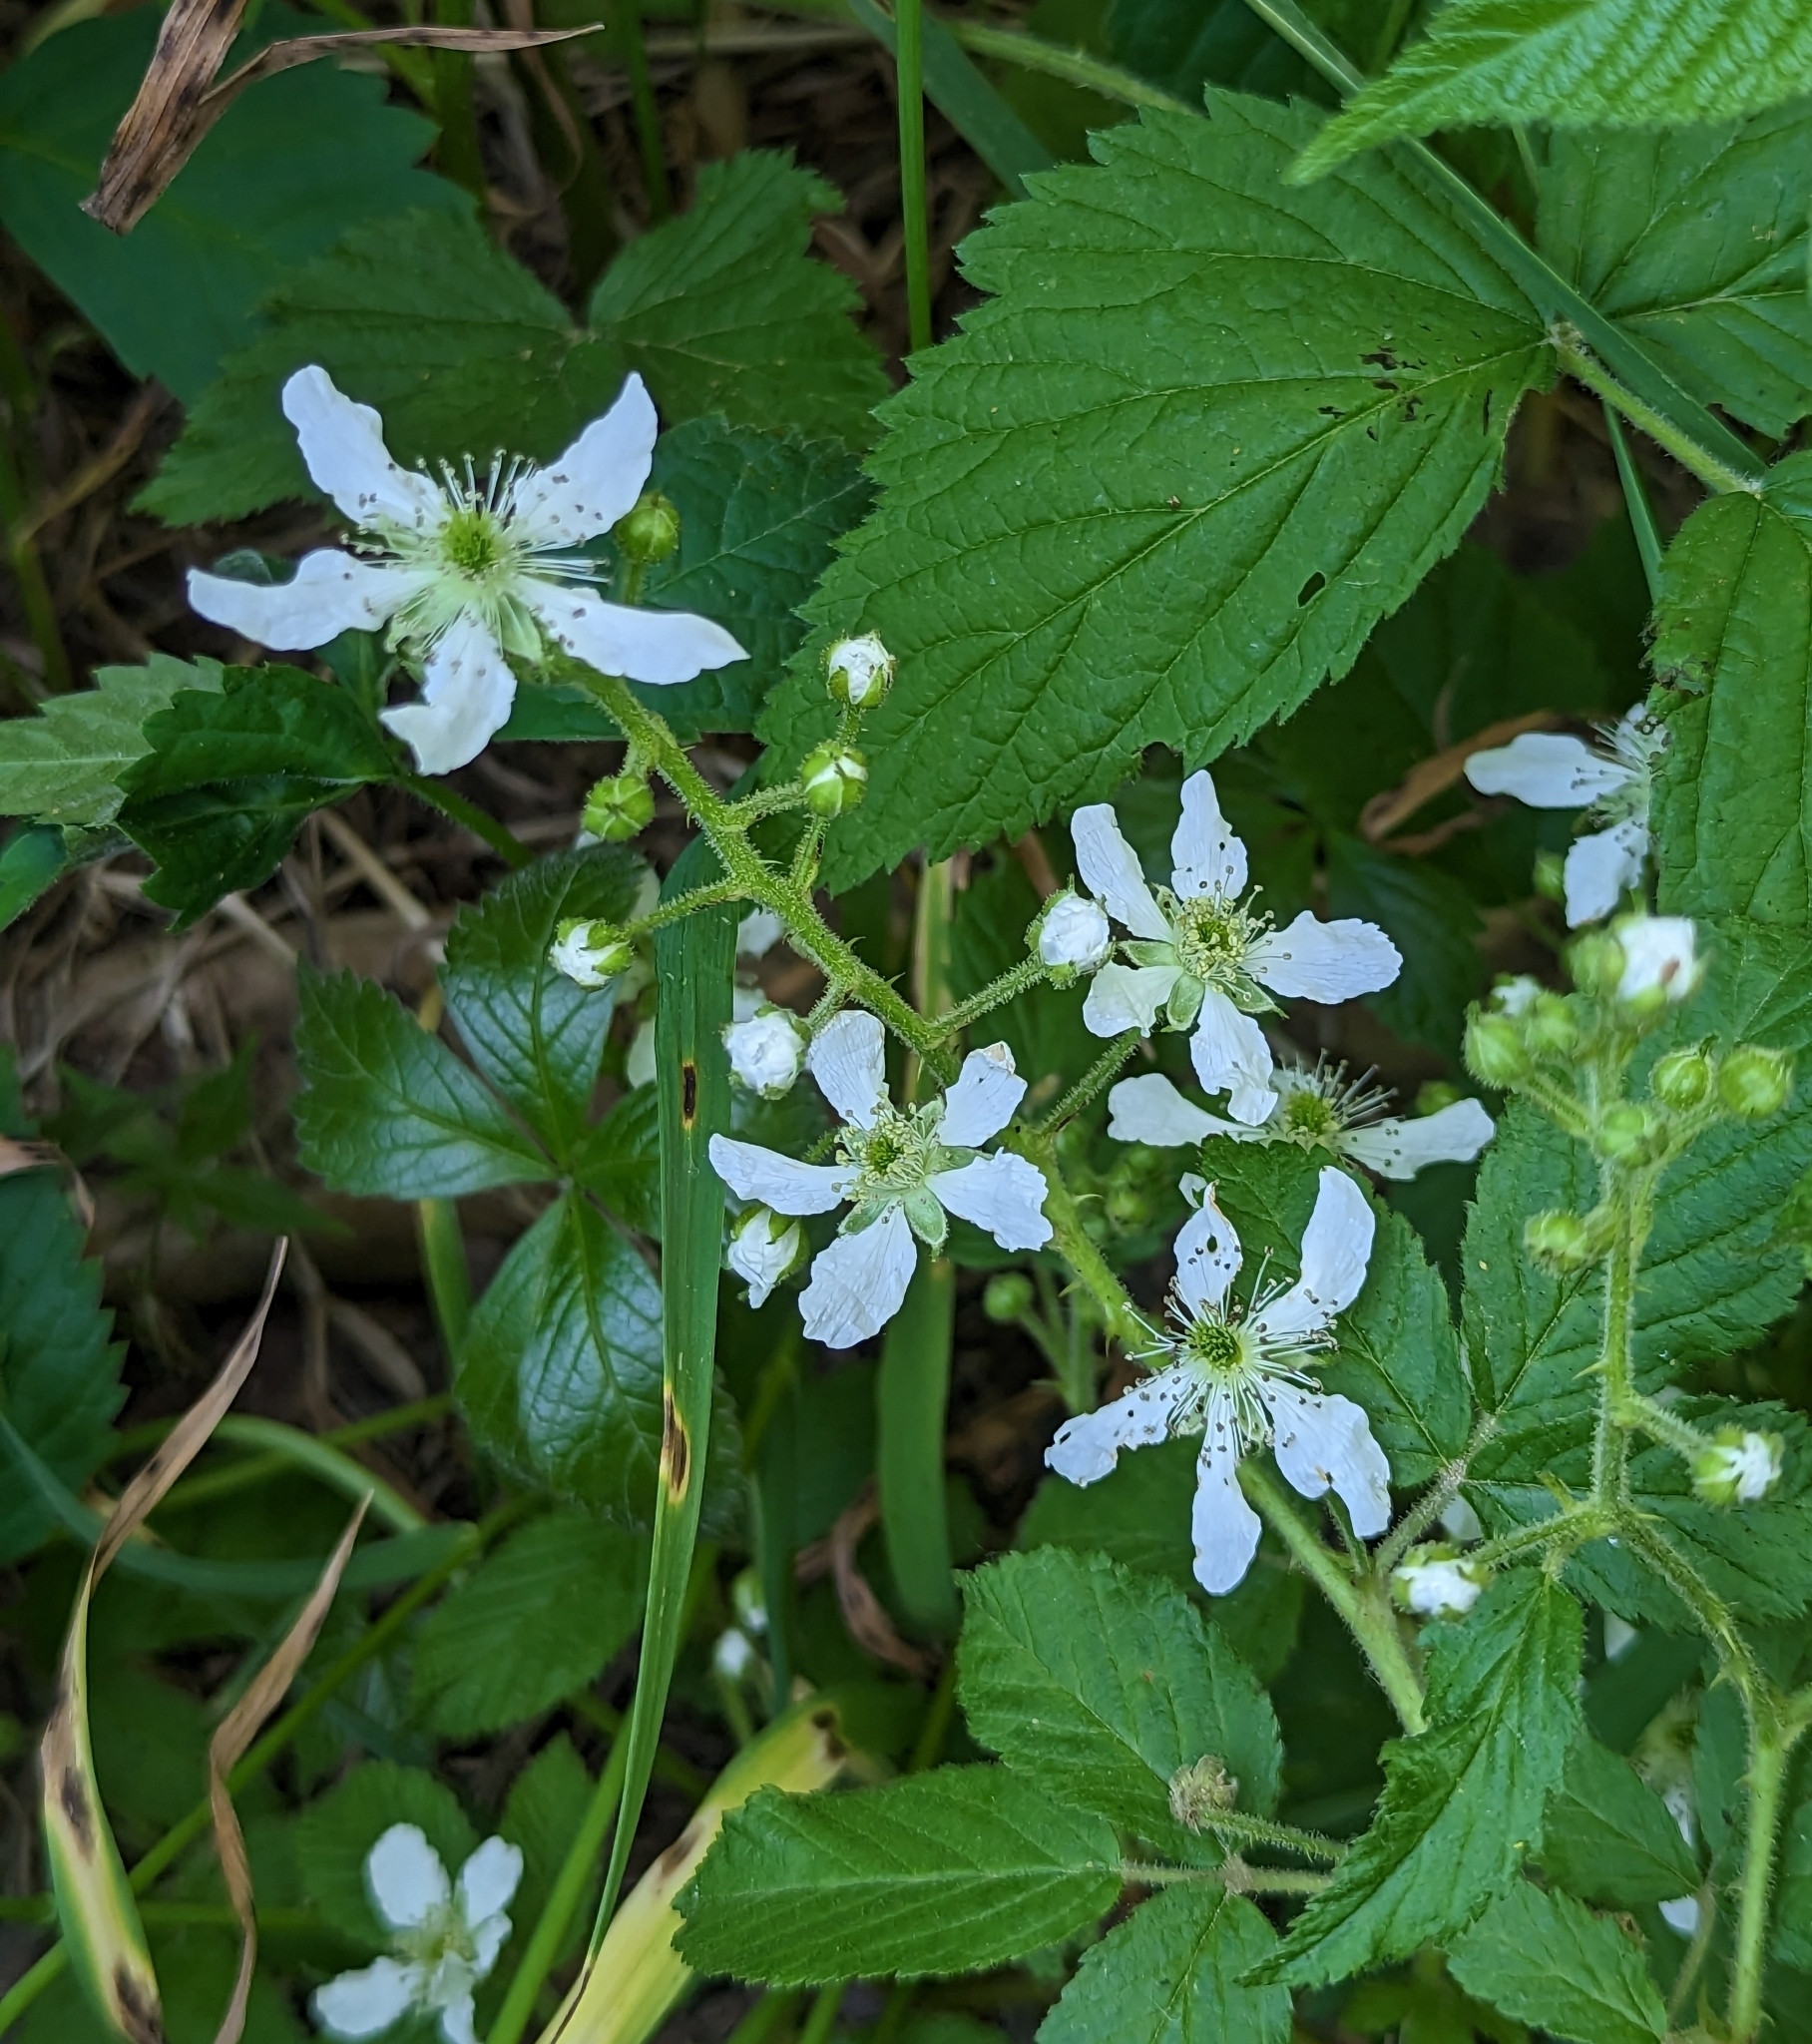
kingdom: Plantae
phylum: Tracheophyta
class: Magnoliopsida
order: Rosales
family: Rosaceae
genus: Rubus
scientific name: Rubus allegheniensis
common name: Allegheny blackberry
